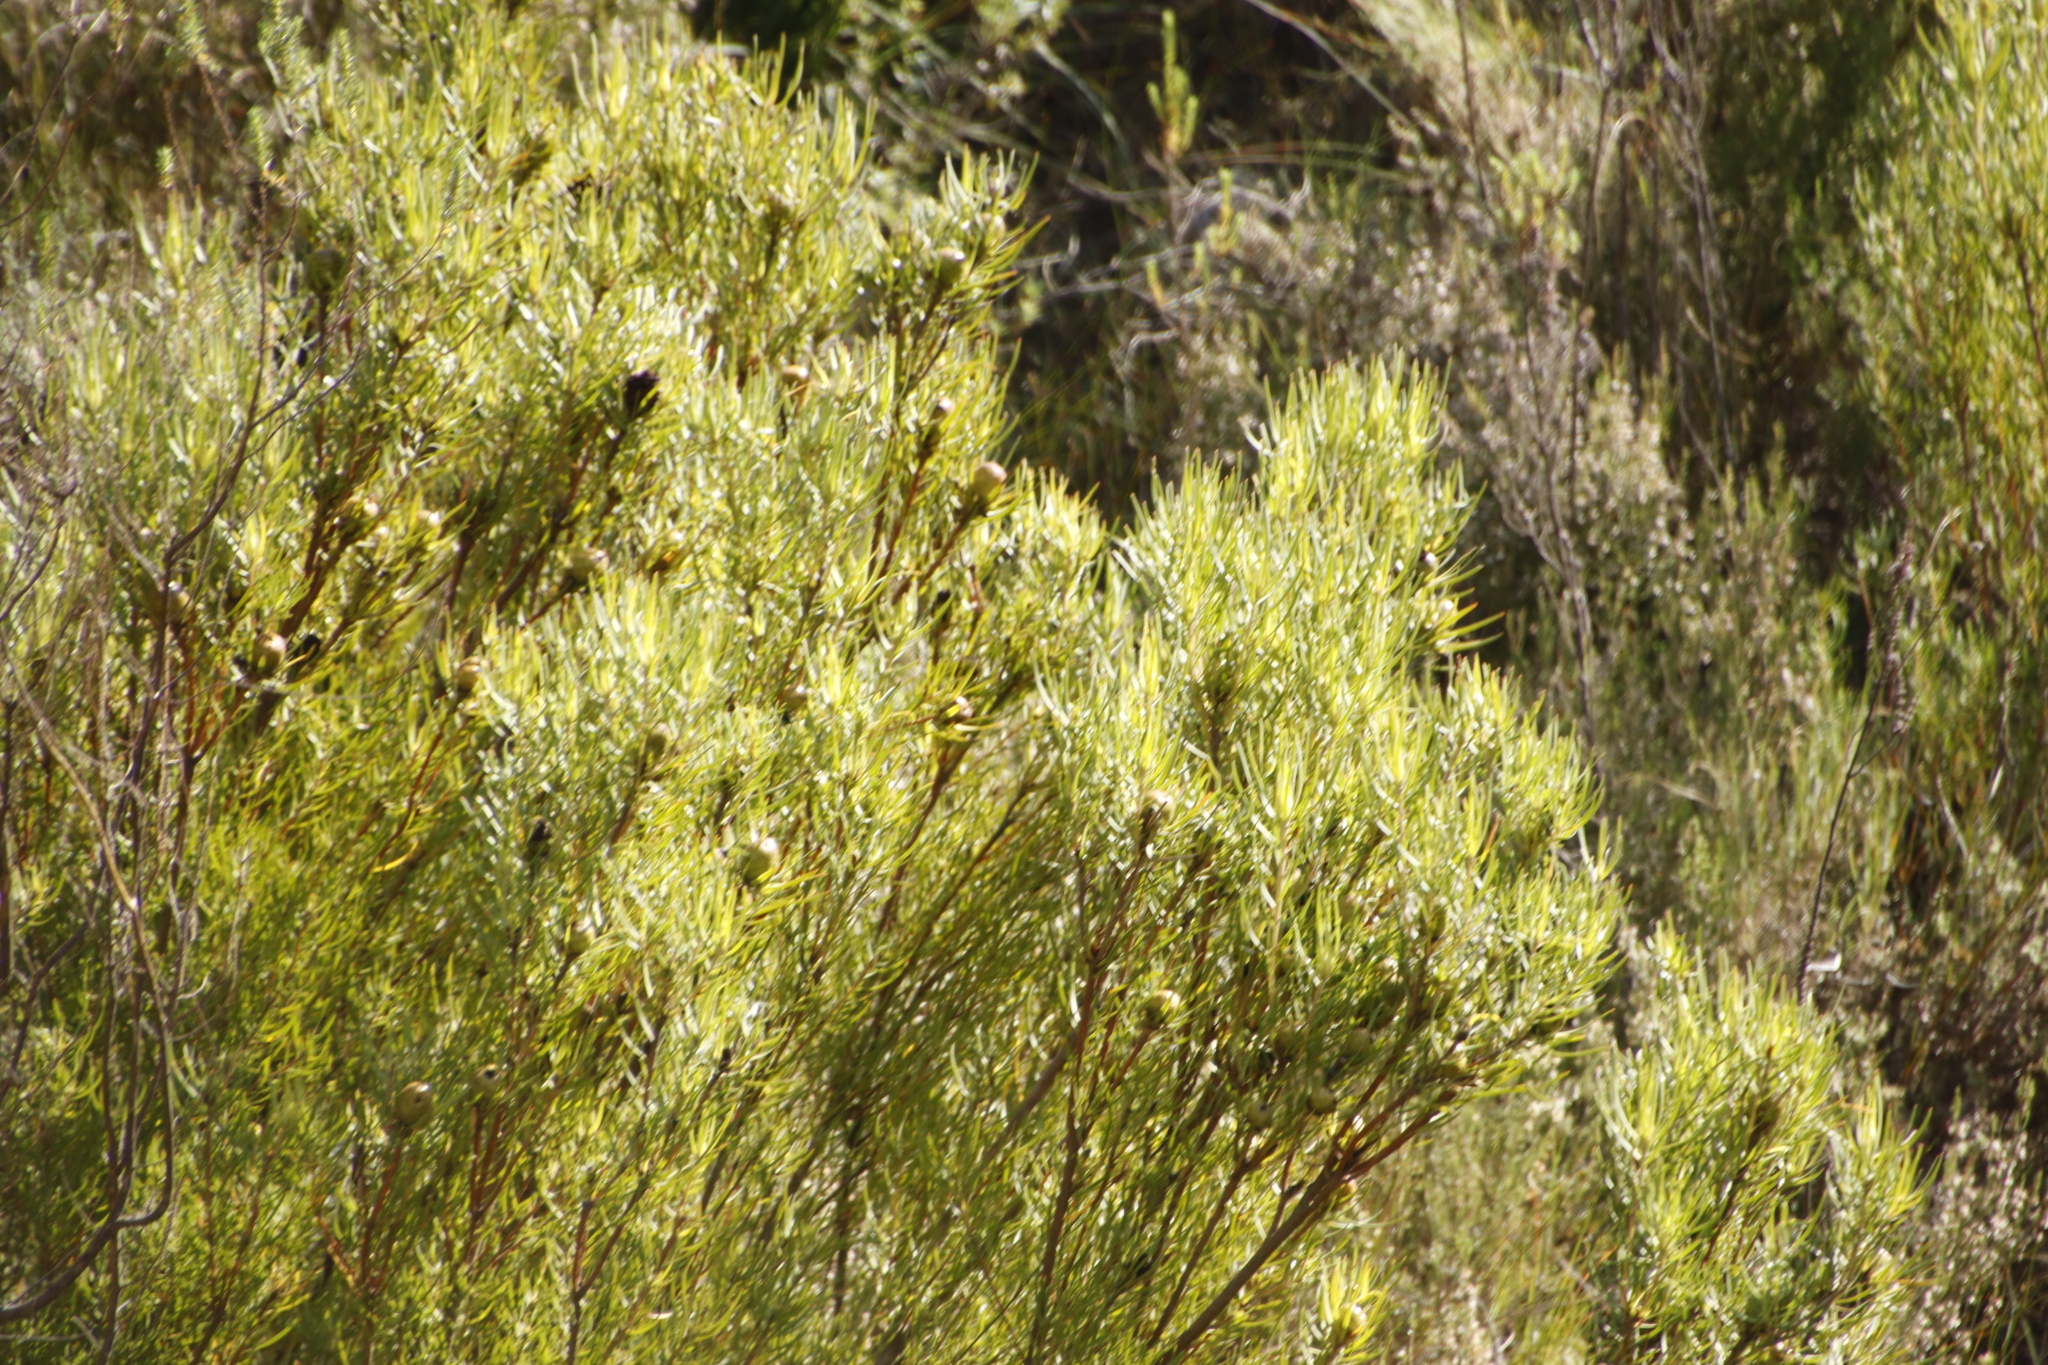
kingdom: Plantae
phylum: Tracheophyta
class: Magnoliopsida
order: Proteales
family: Proteaceae
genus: Leucadendron
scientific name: Leucadendron spissifolium
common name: Spear-leaf conebush
